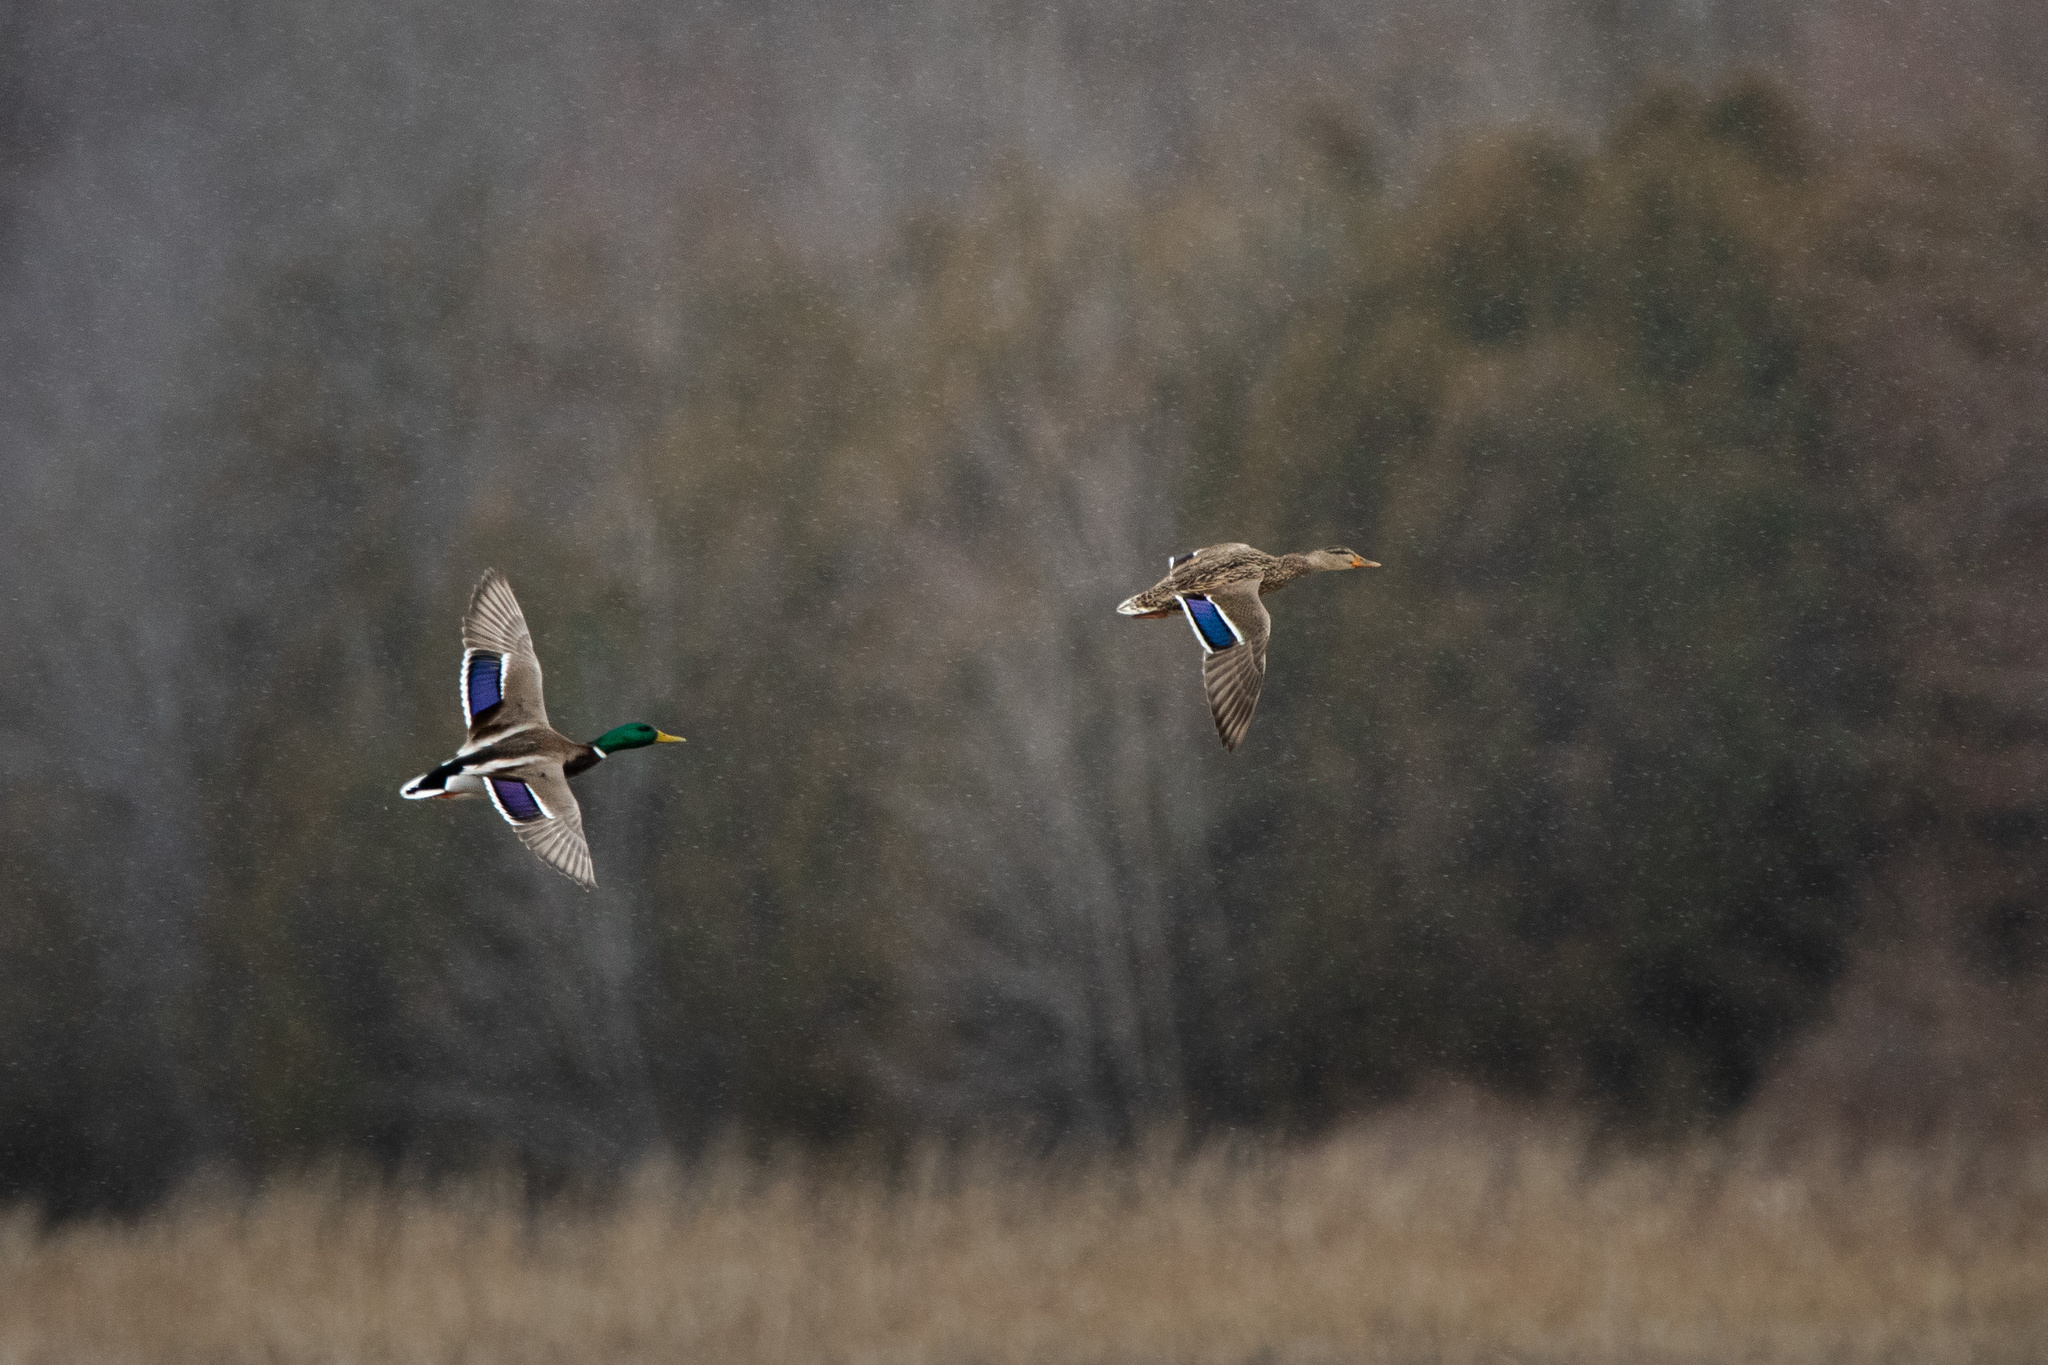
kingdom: Animalia
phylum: Chordata
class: Aves
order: Anseriformes
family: Anatidae
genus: Anas
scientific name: Anas platyrhynchos
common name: Mallard
